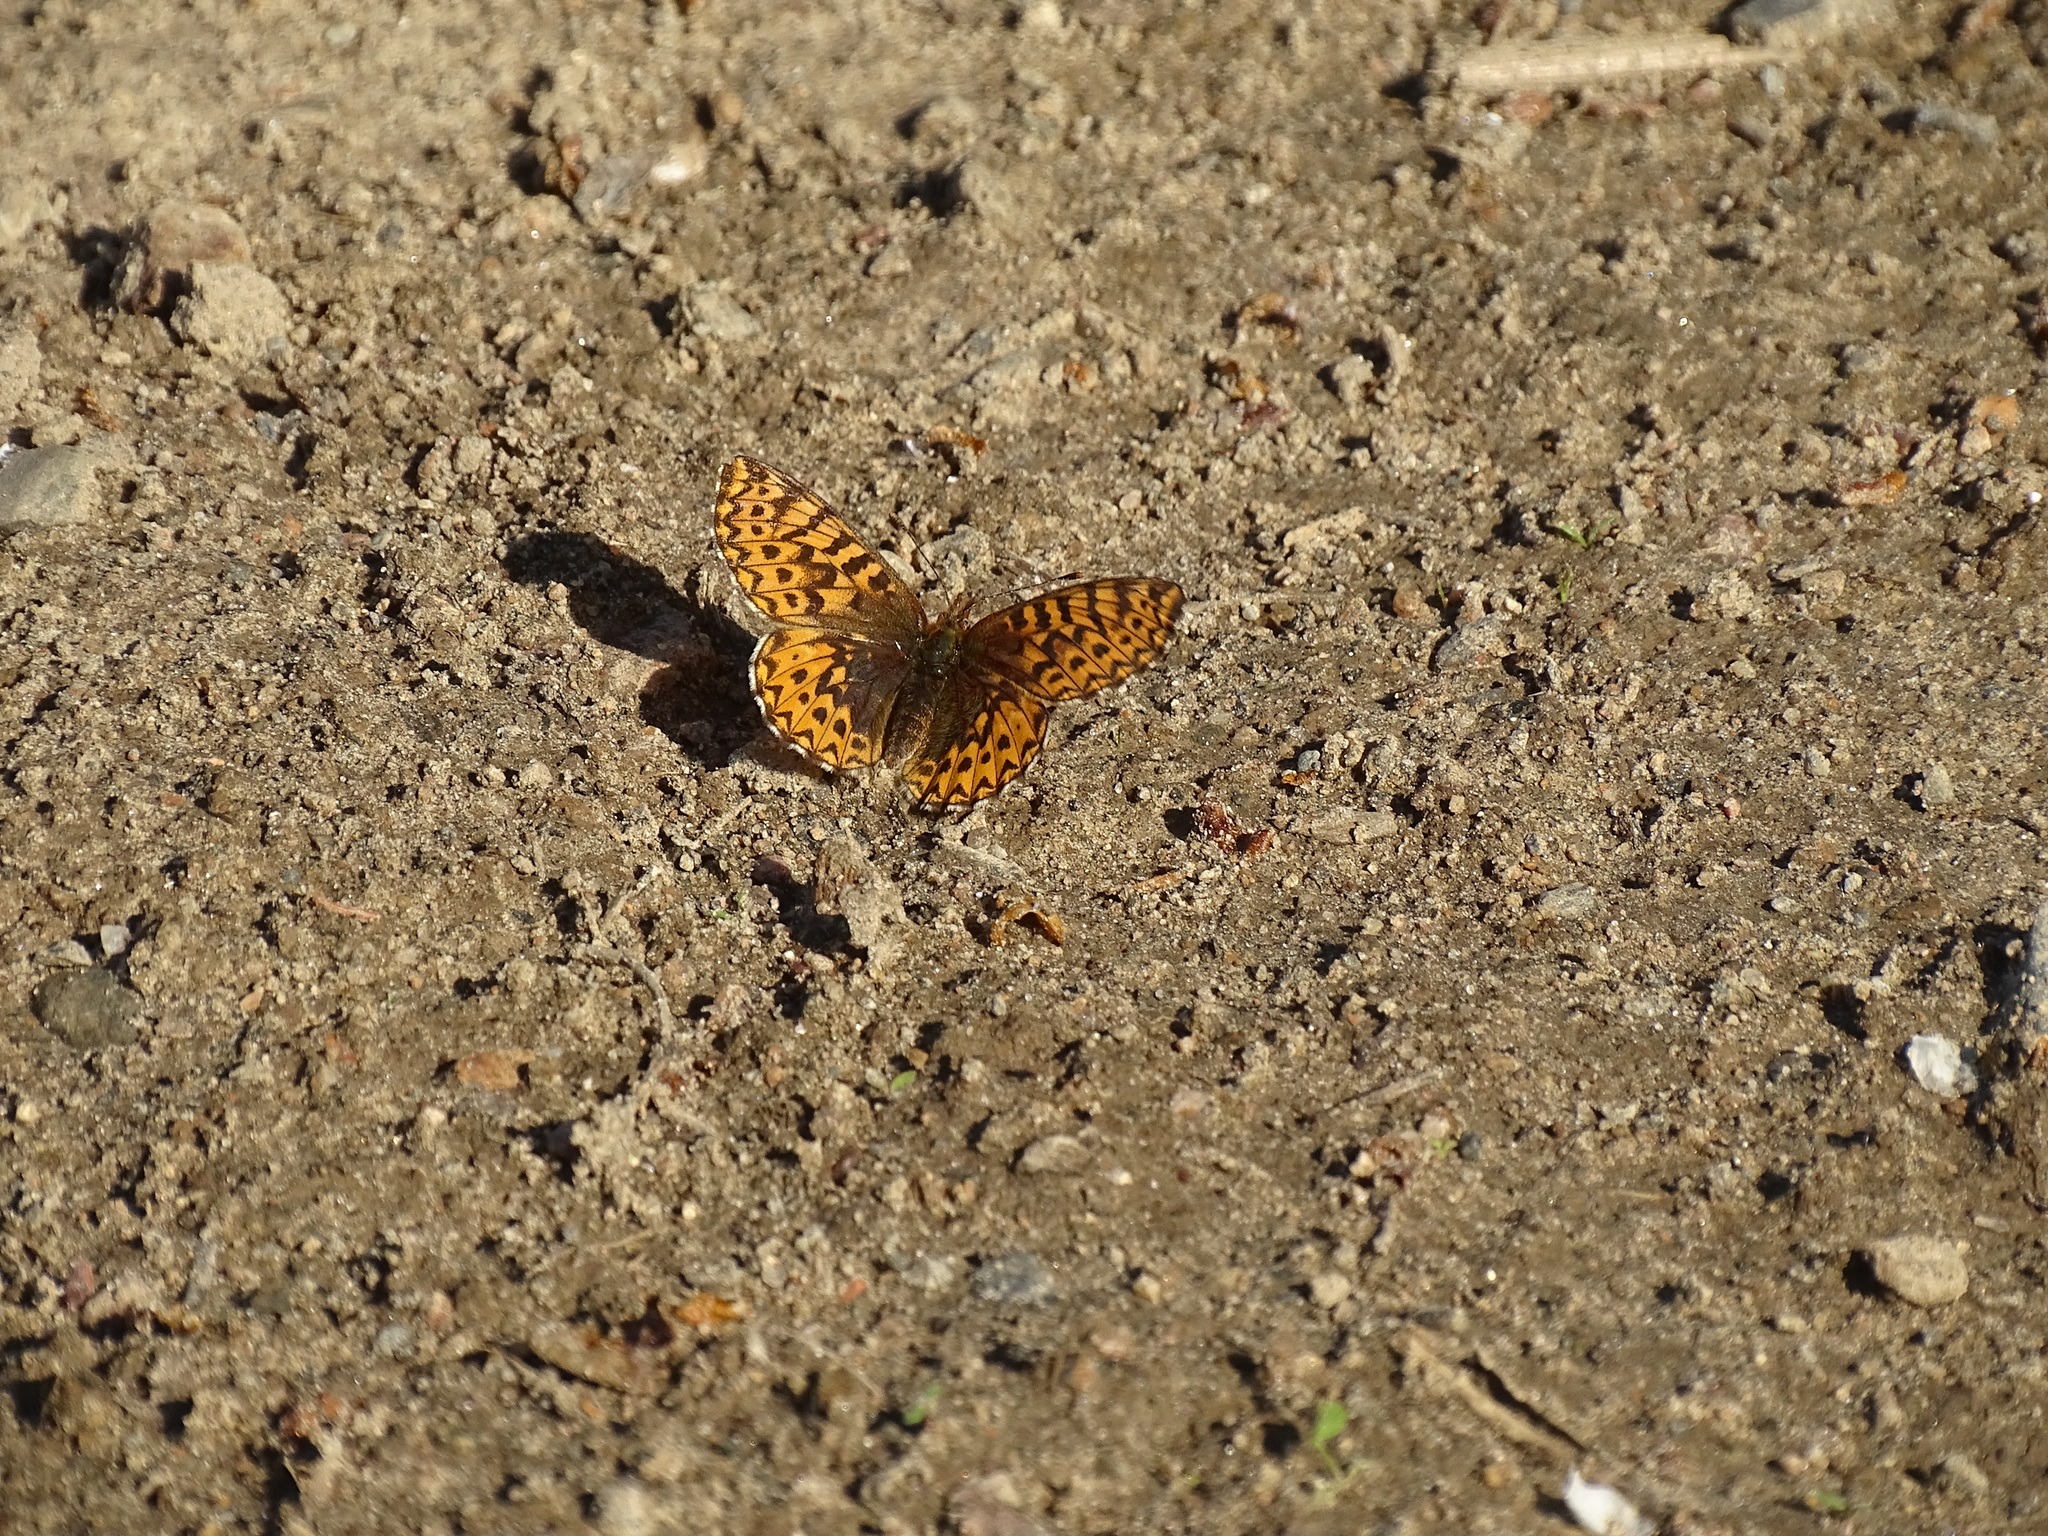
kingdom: Animalia
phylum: Arthropoda
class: Insecta
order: Lepidoptera
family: Nymphalidae
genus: Boloria
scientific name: Boloria freija
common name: Freija fritillary
